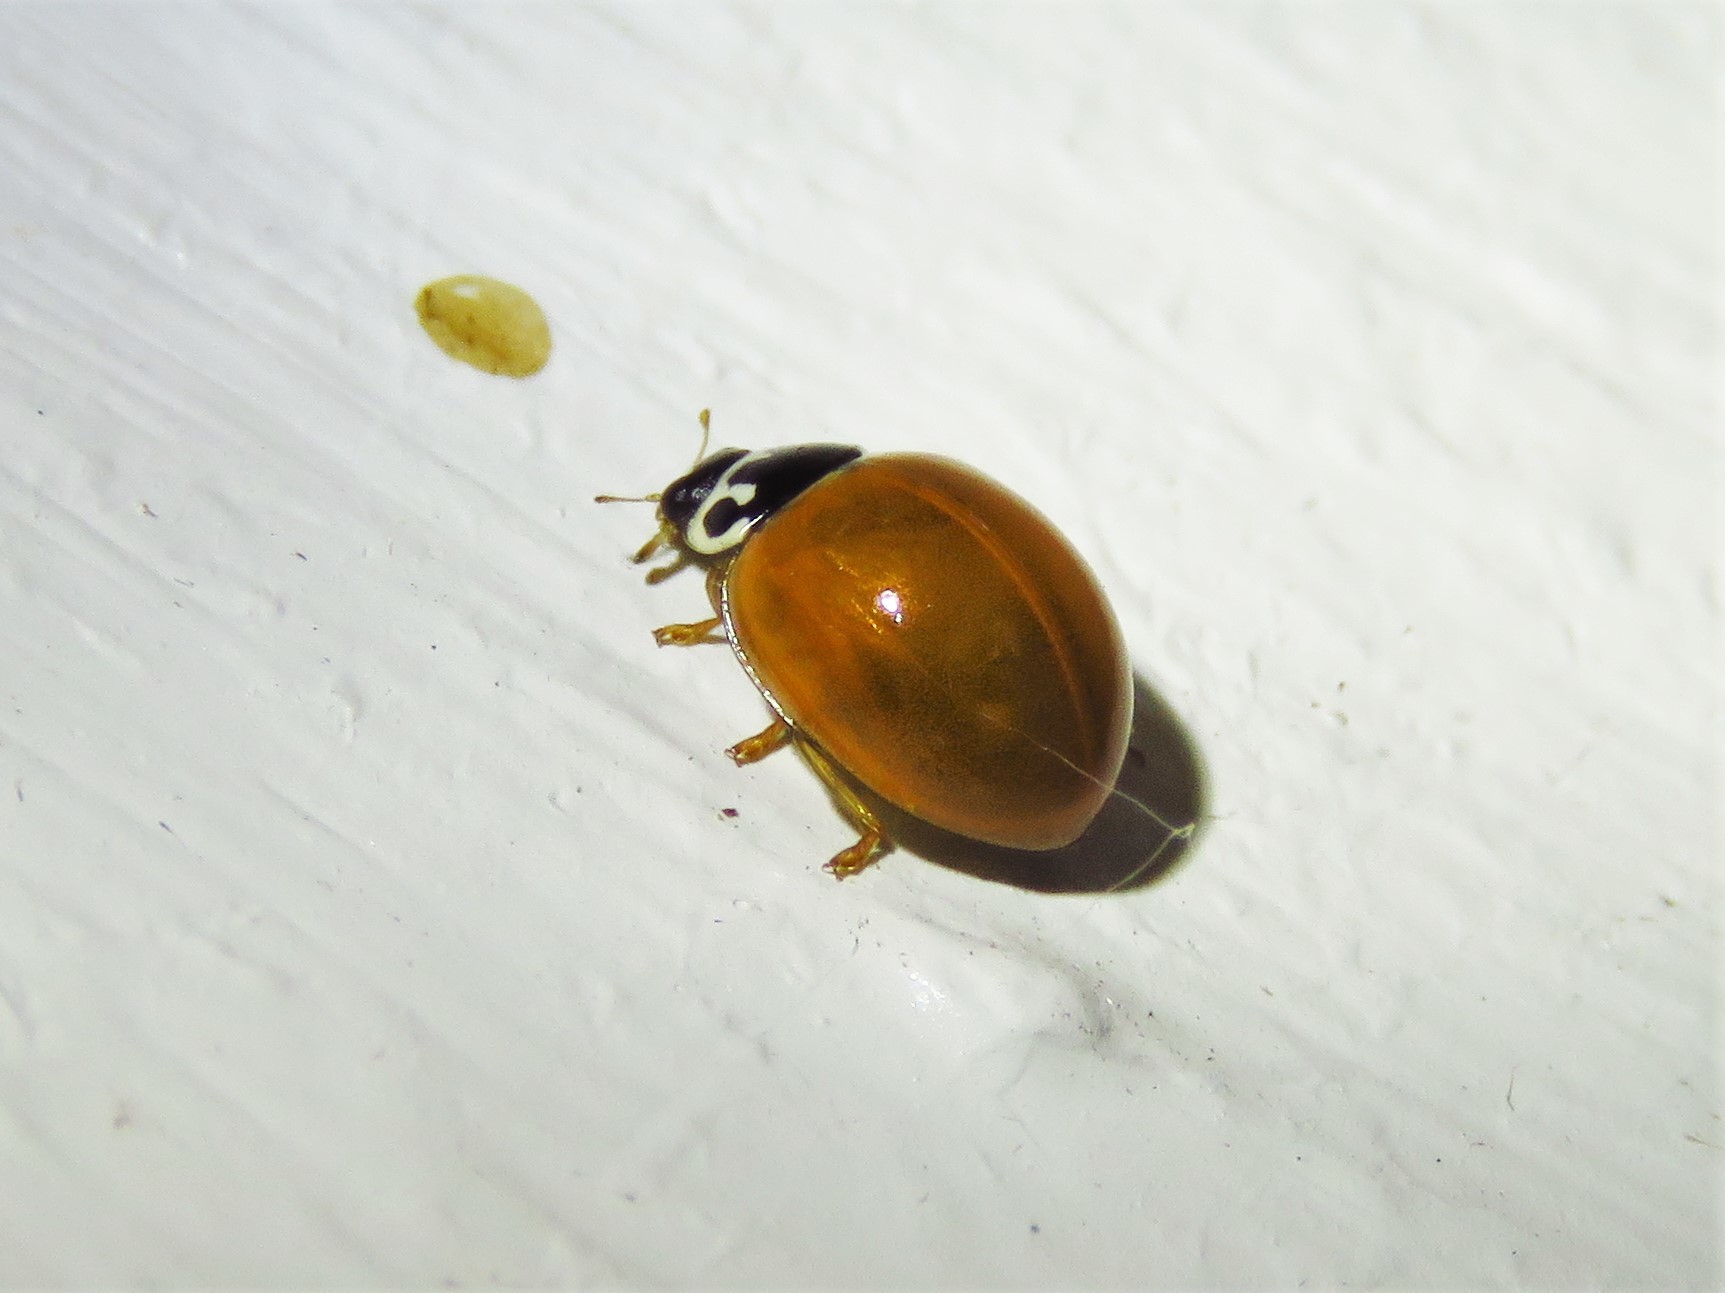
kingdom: Animalia
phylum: Arthropoda
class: Insecta
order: Coleoptera
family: Coccinellidae
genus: Cycloneda
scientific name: Cycloneda munda
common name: Polished lady beetle
